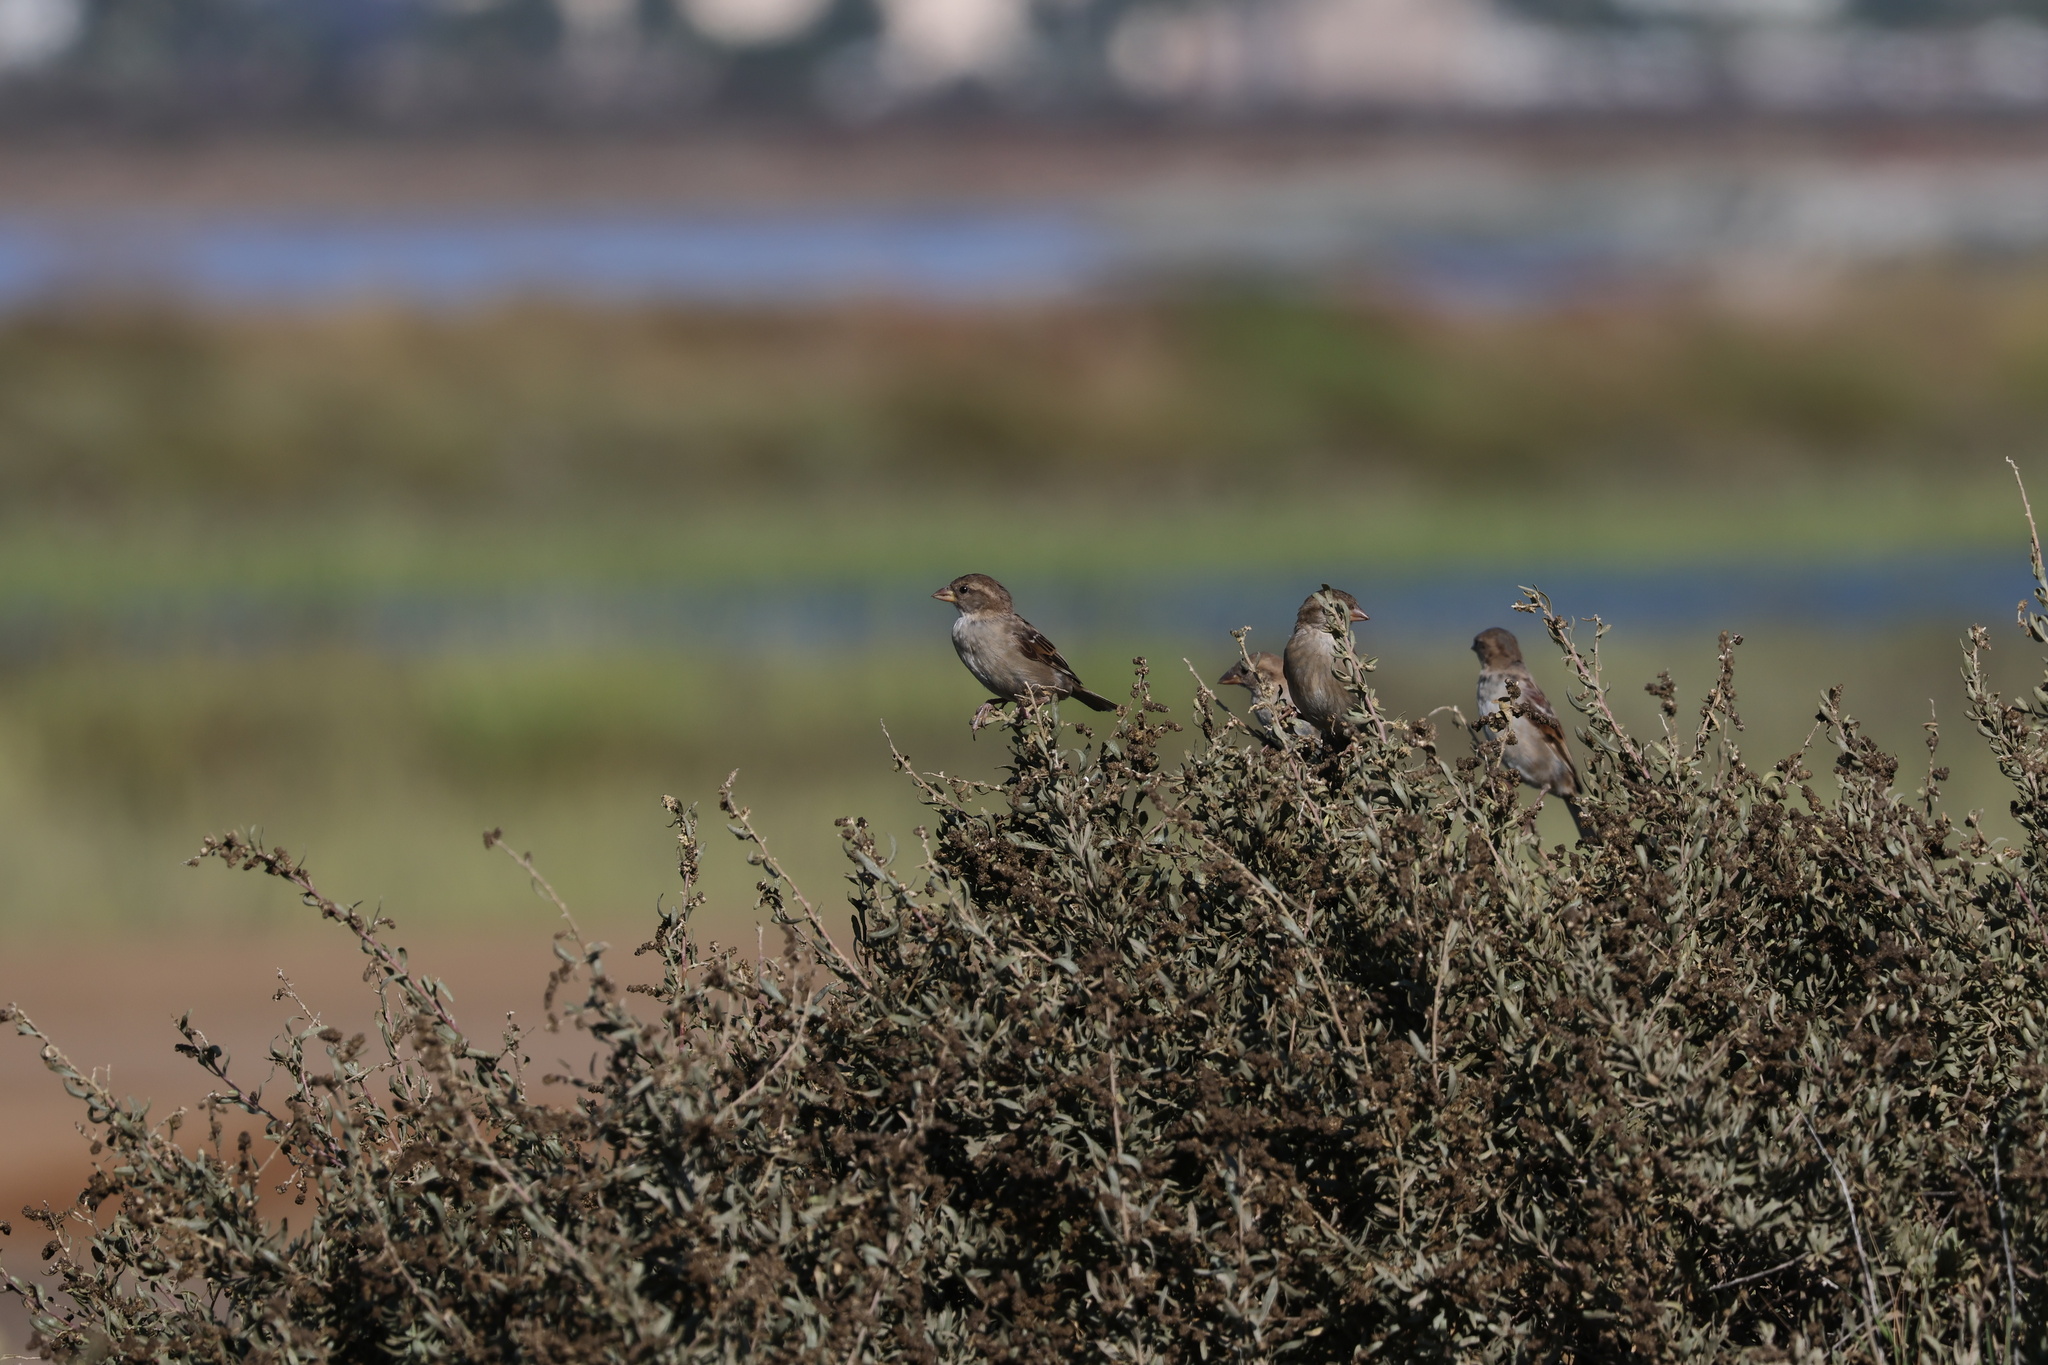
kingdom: Animalia
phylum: Chordata
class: Aves
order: Passeriformes
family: Passeridae
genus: Passer
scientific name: Passer domesticus
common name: House sparrow
